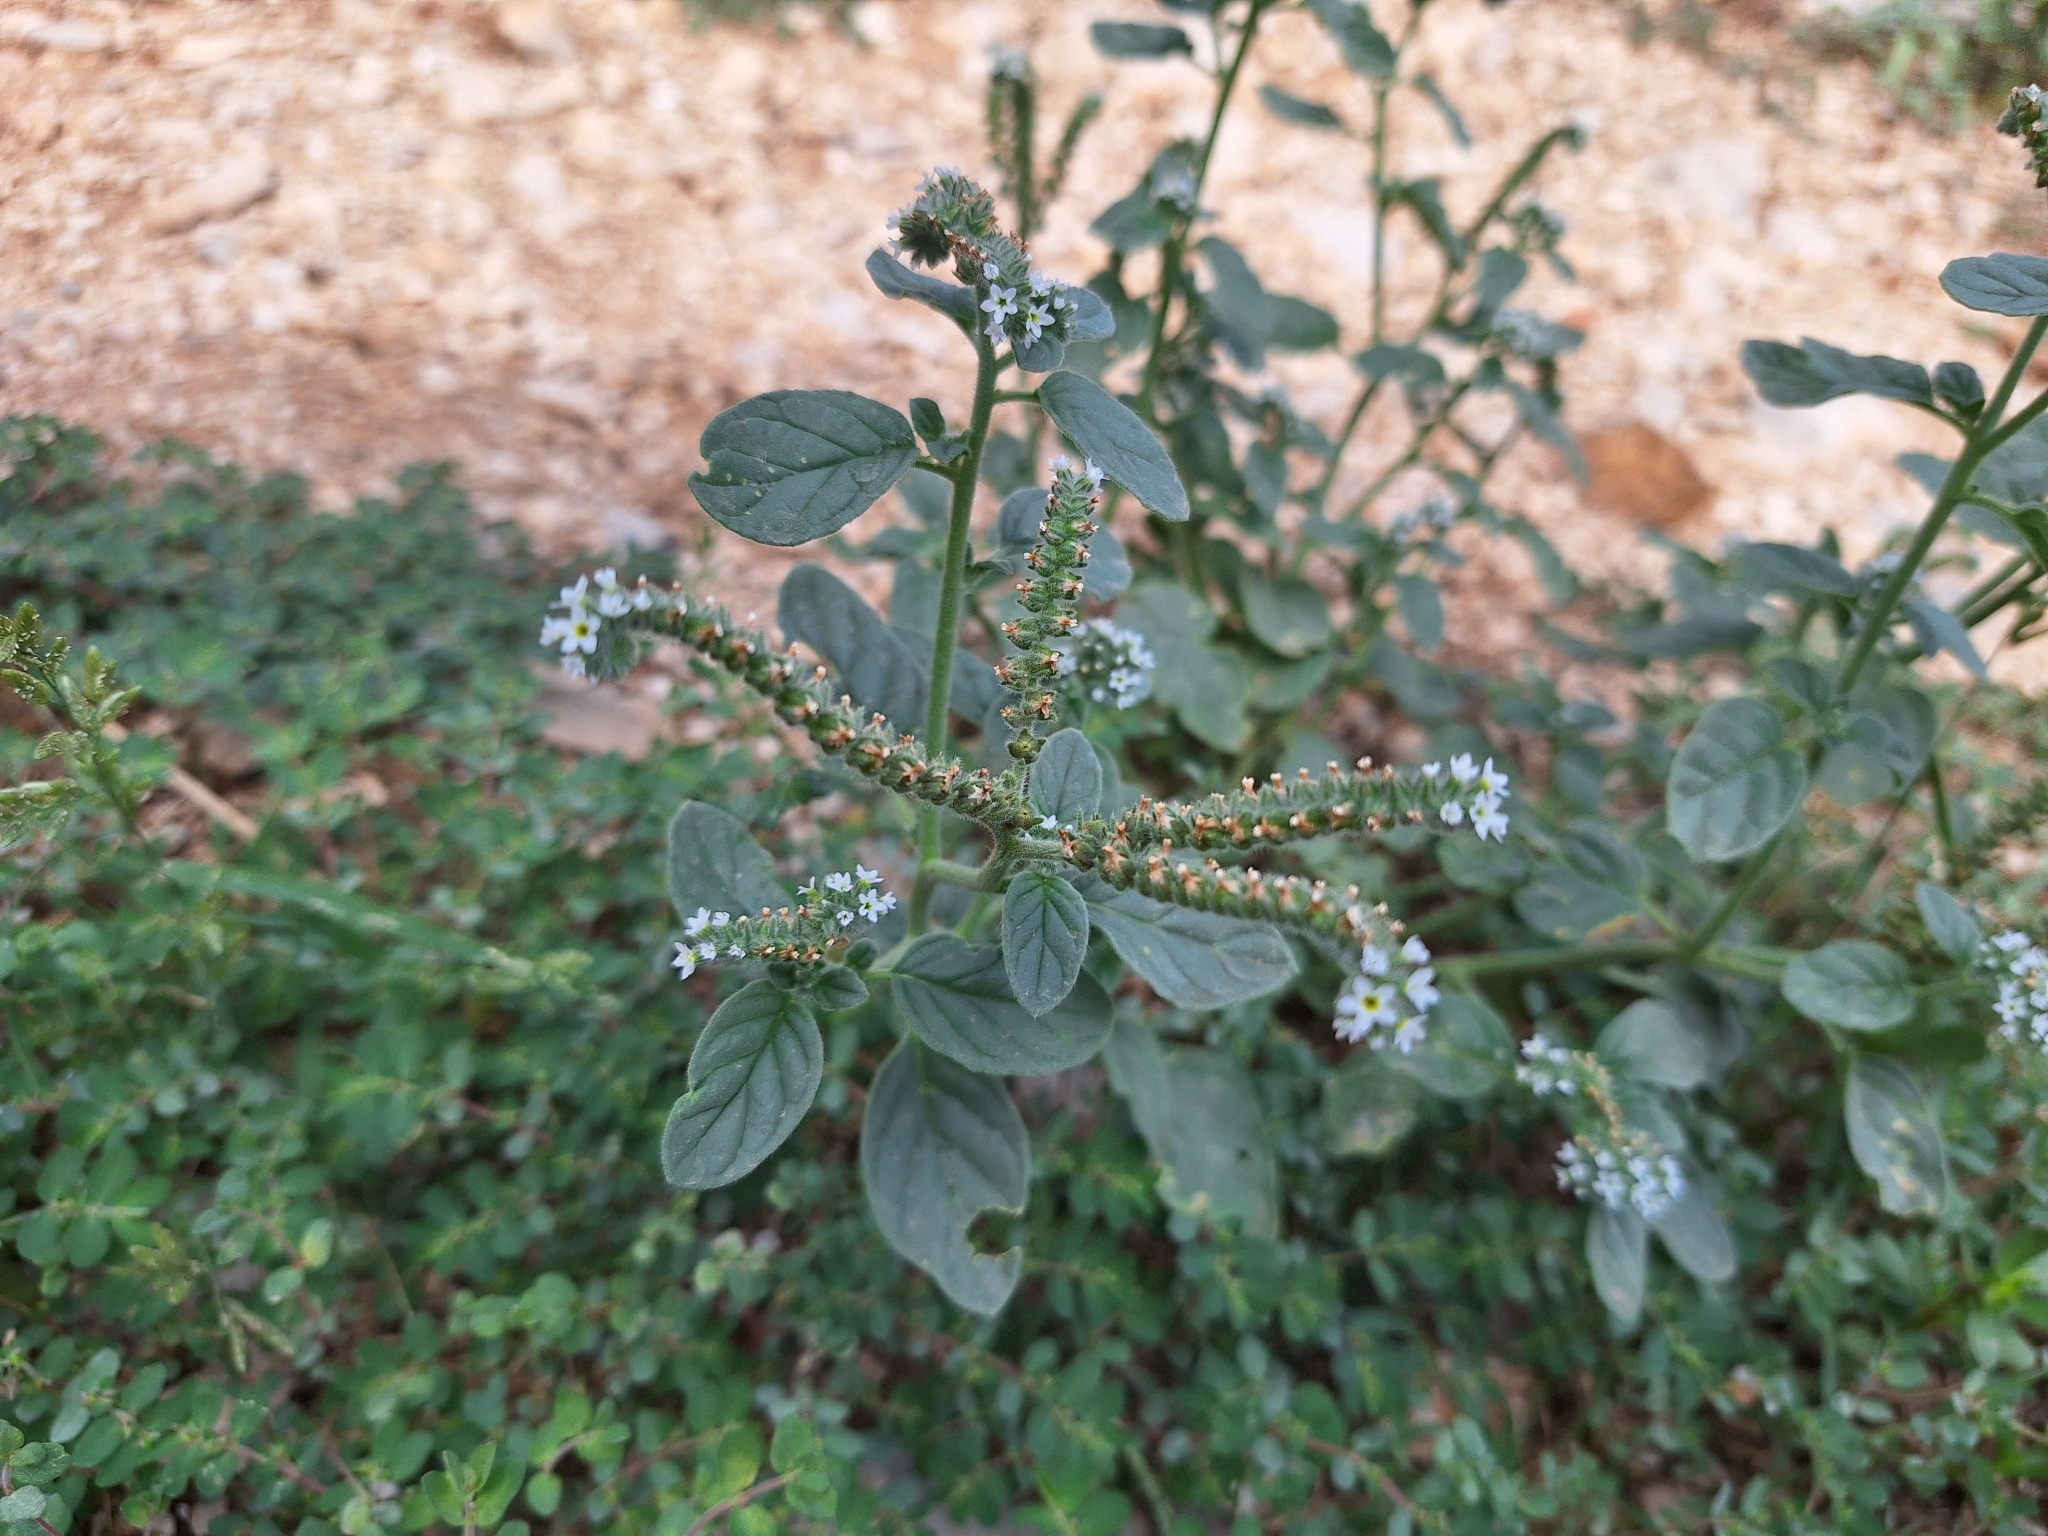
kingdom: Plantae
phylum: Tracheophyta
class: Magnoliopsida
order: Boraginales
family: Heliotropiaceae
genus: Heliotropium
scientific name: Heliotropium europaeum
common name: European heliotrope
